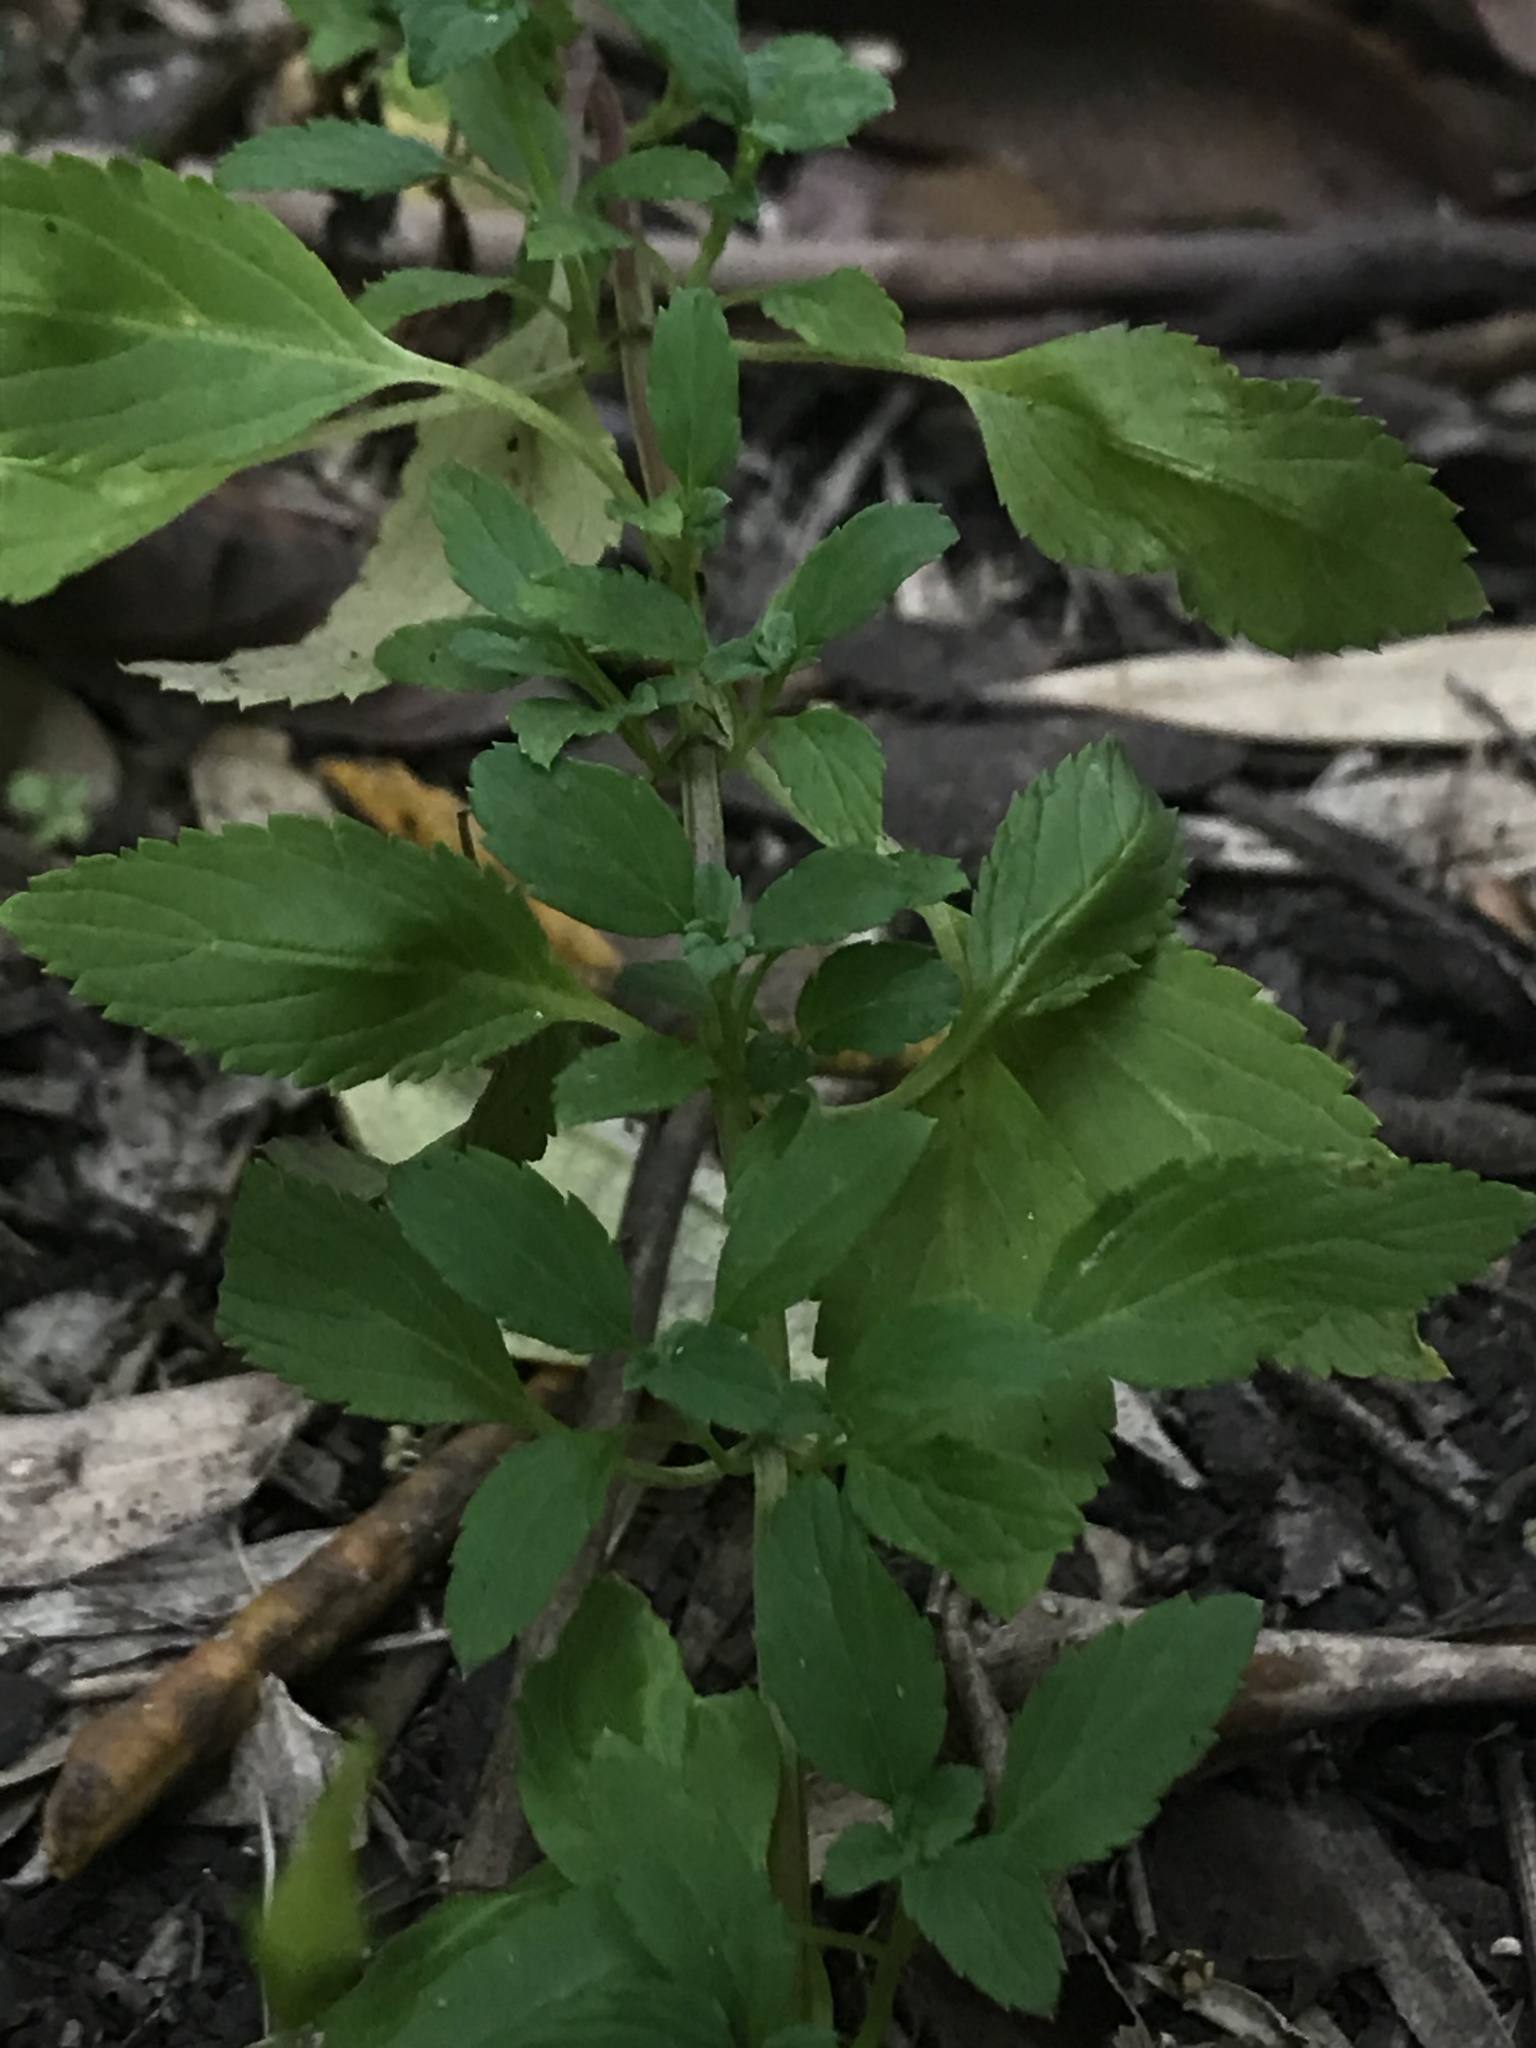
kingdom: Plantae
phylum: Tracheophyta
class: Magnoliopsida
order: Lamiales
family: Scrophulariaceae
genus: Alonsoa
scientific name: Alonsoa meridionalis
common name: Maskflower
